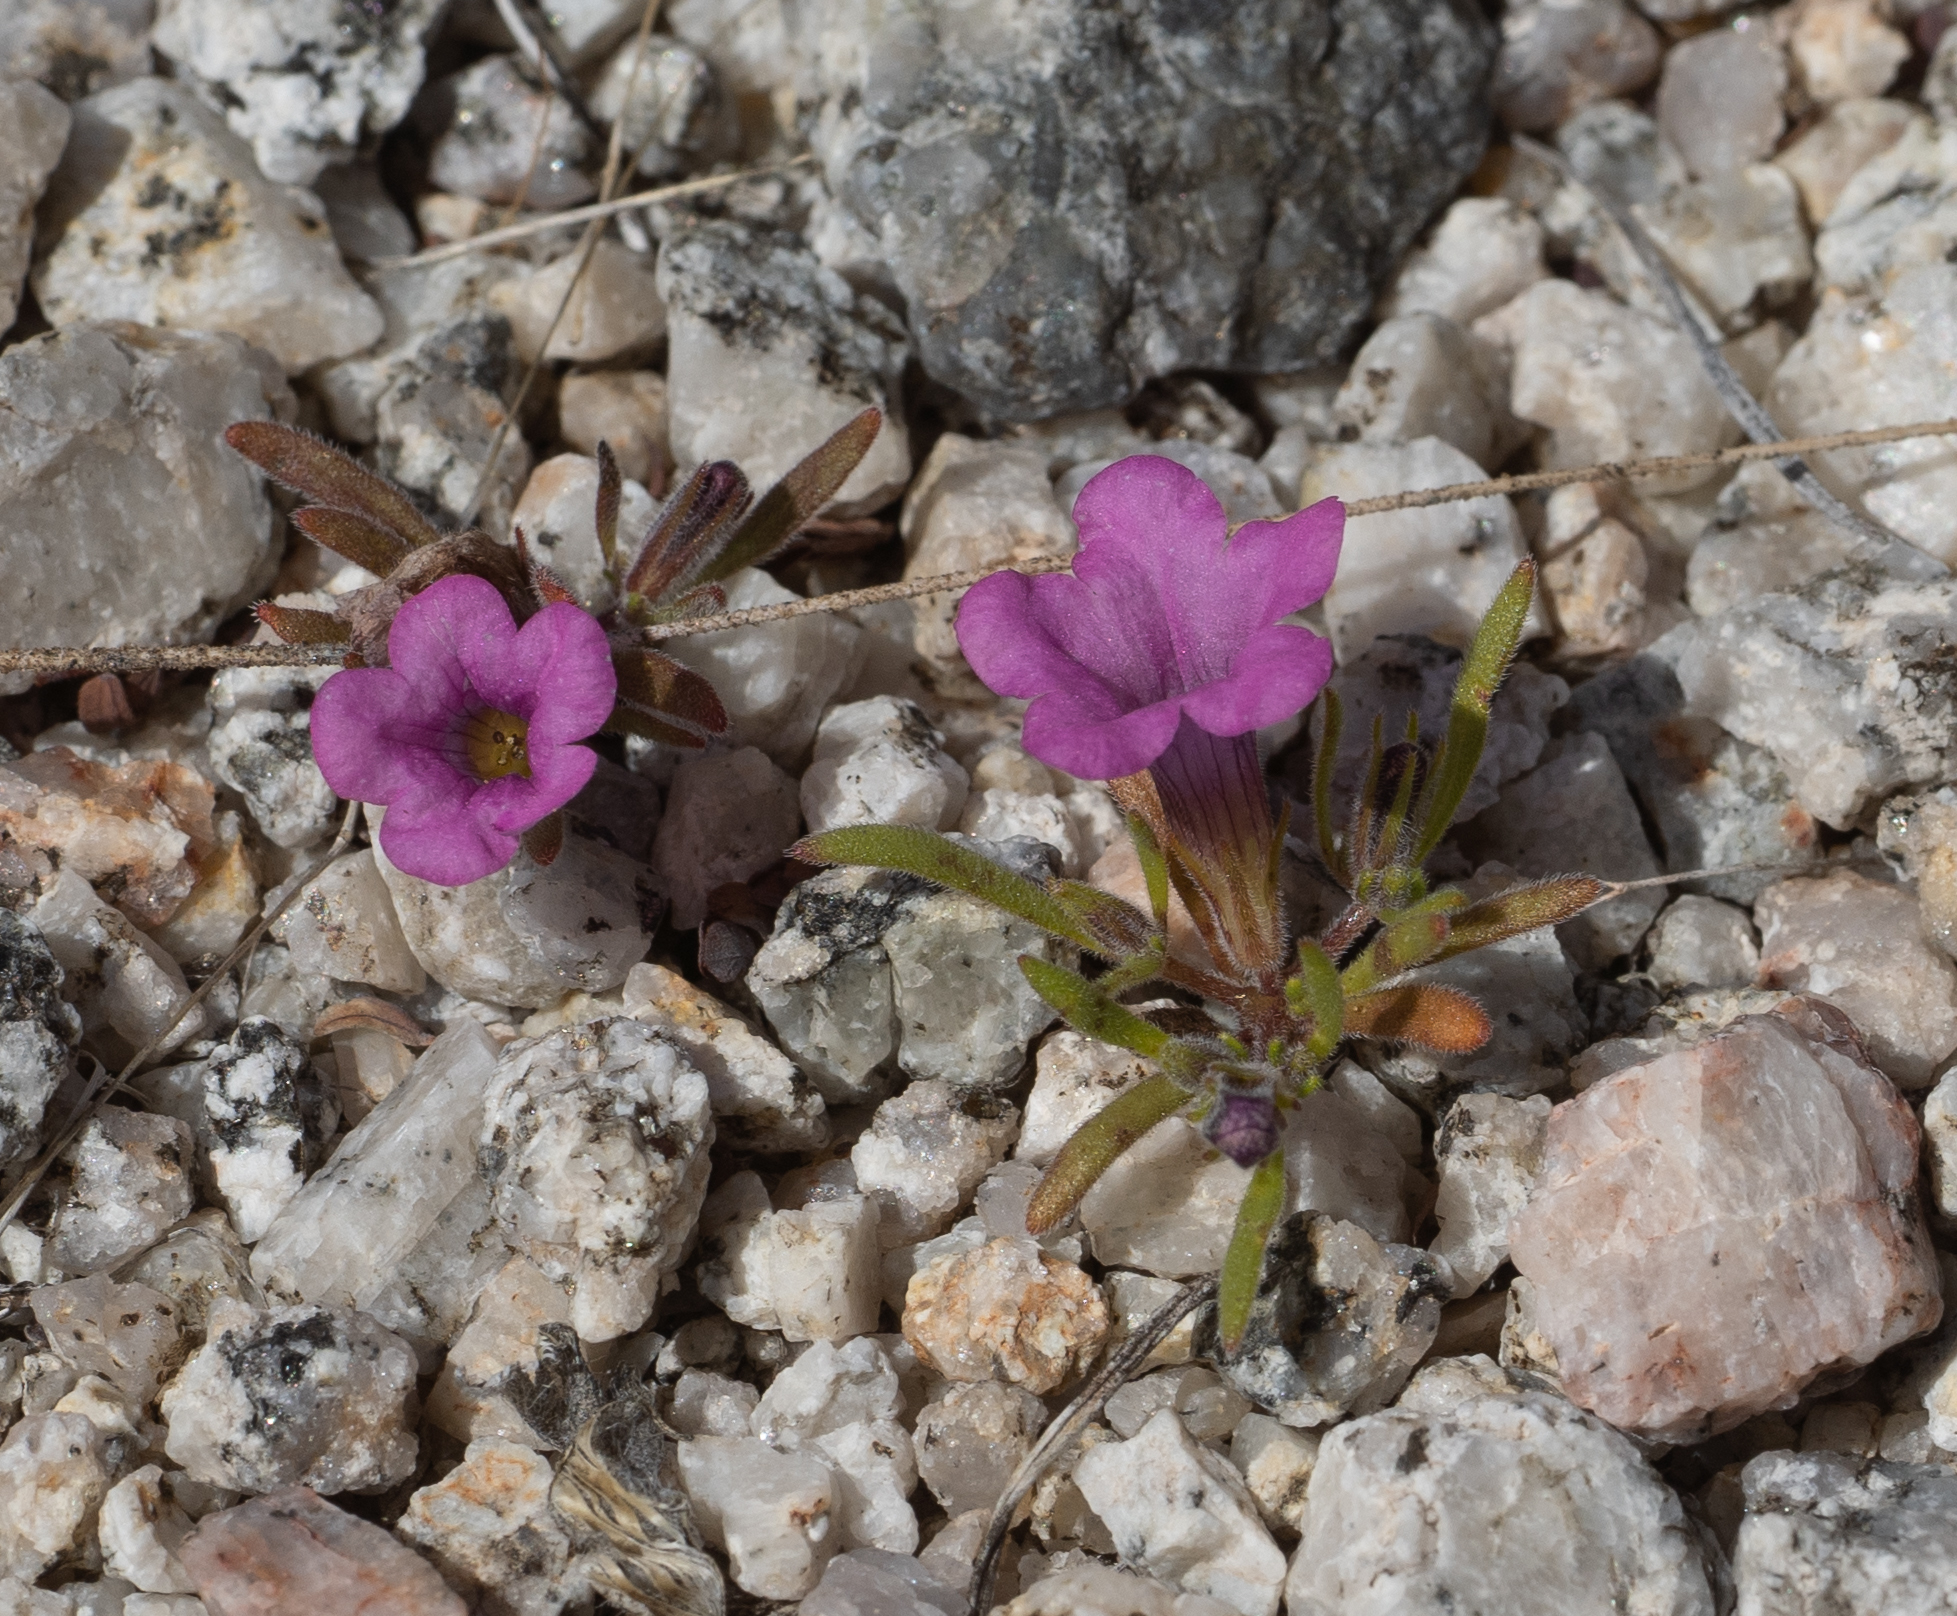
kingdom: Plantae
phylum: Tracheophyta
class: Magnoliopsida
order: Boraginales
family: Namaceae
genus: Nama
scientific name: Nama demissa
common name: Leafy nama
